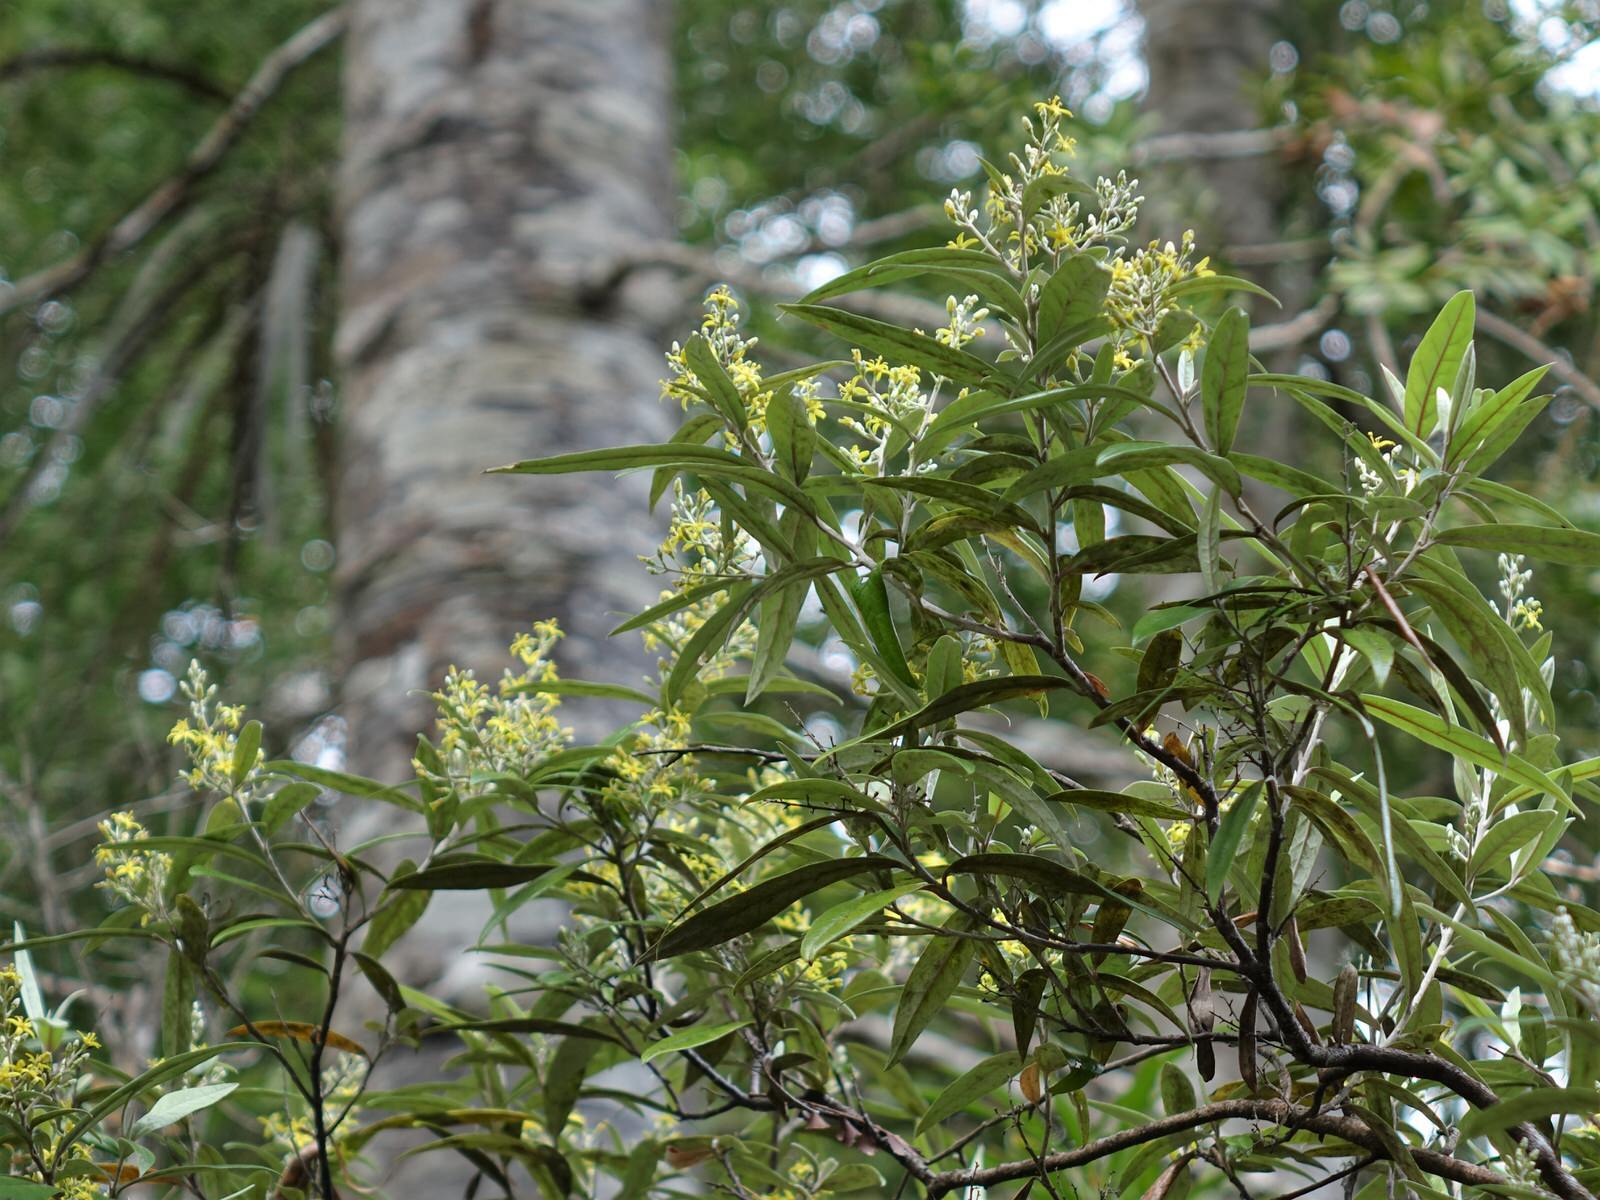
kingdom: Plantae
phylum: Tracheophyta
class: Magnoliopsida
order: Asterales
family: Argophyllaceae
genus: Corokia
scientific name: Corokia buddleioides
